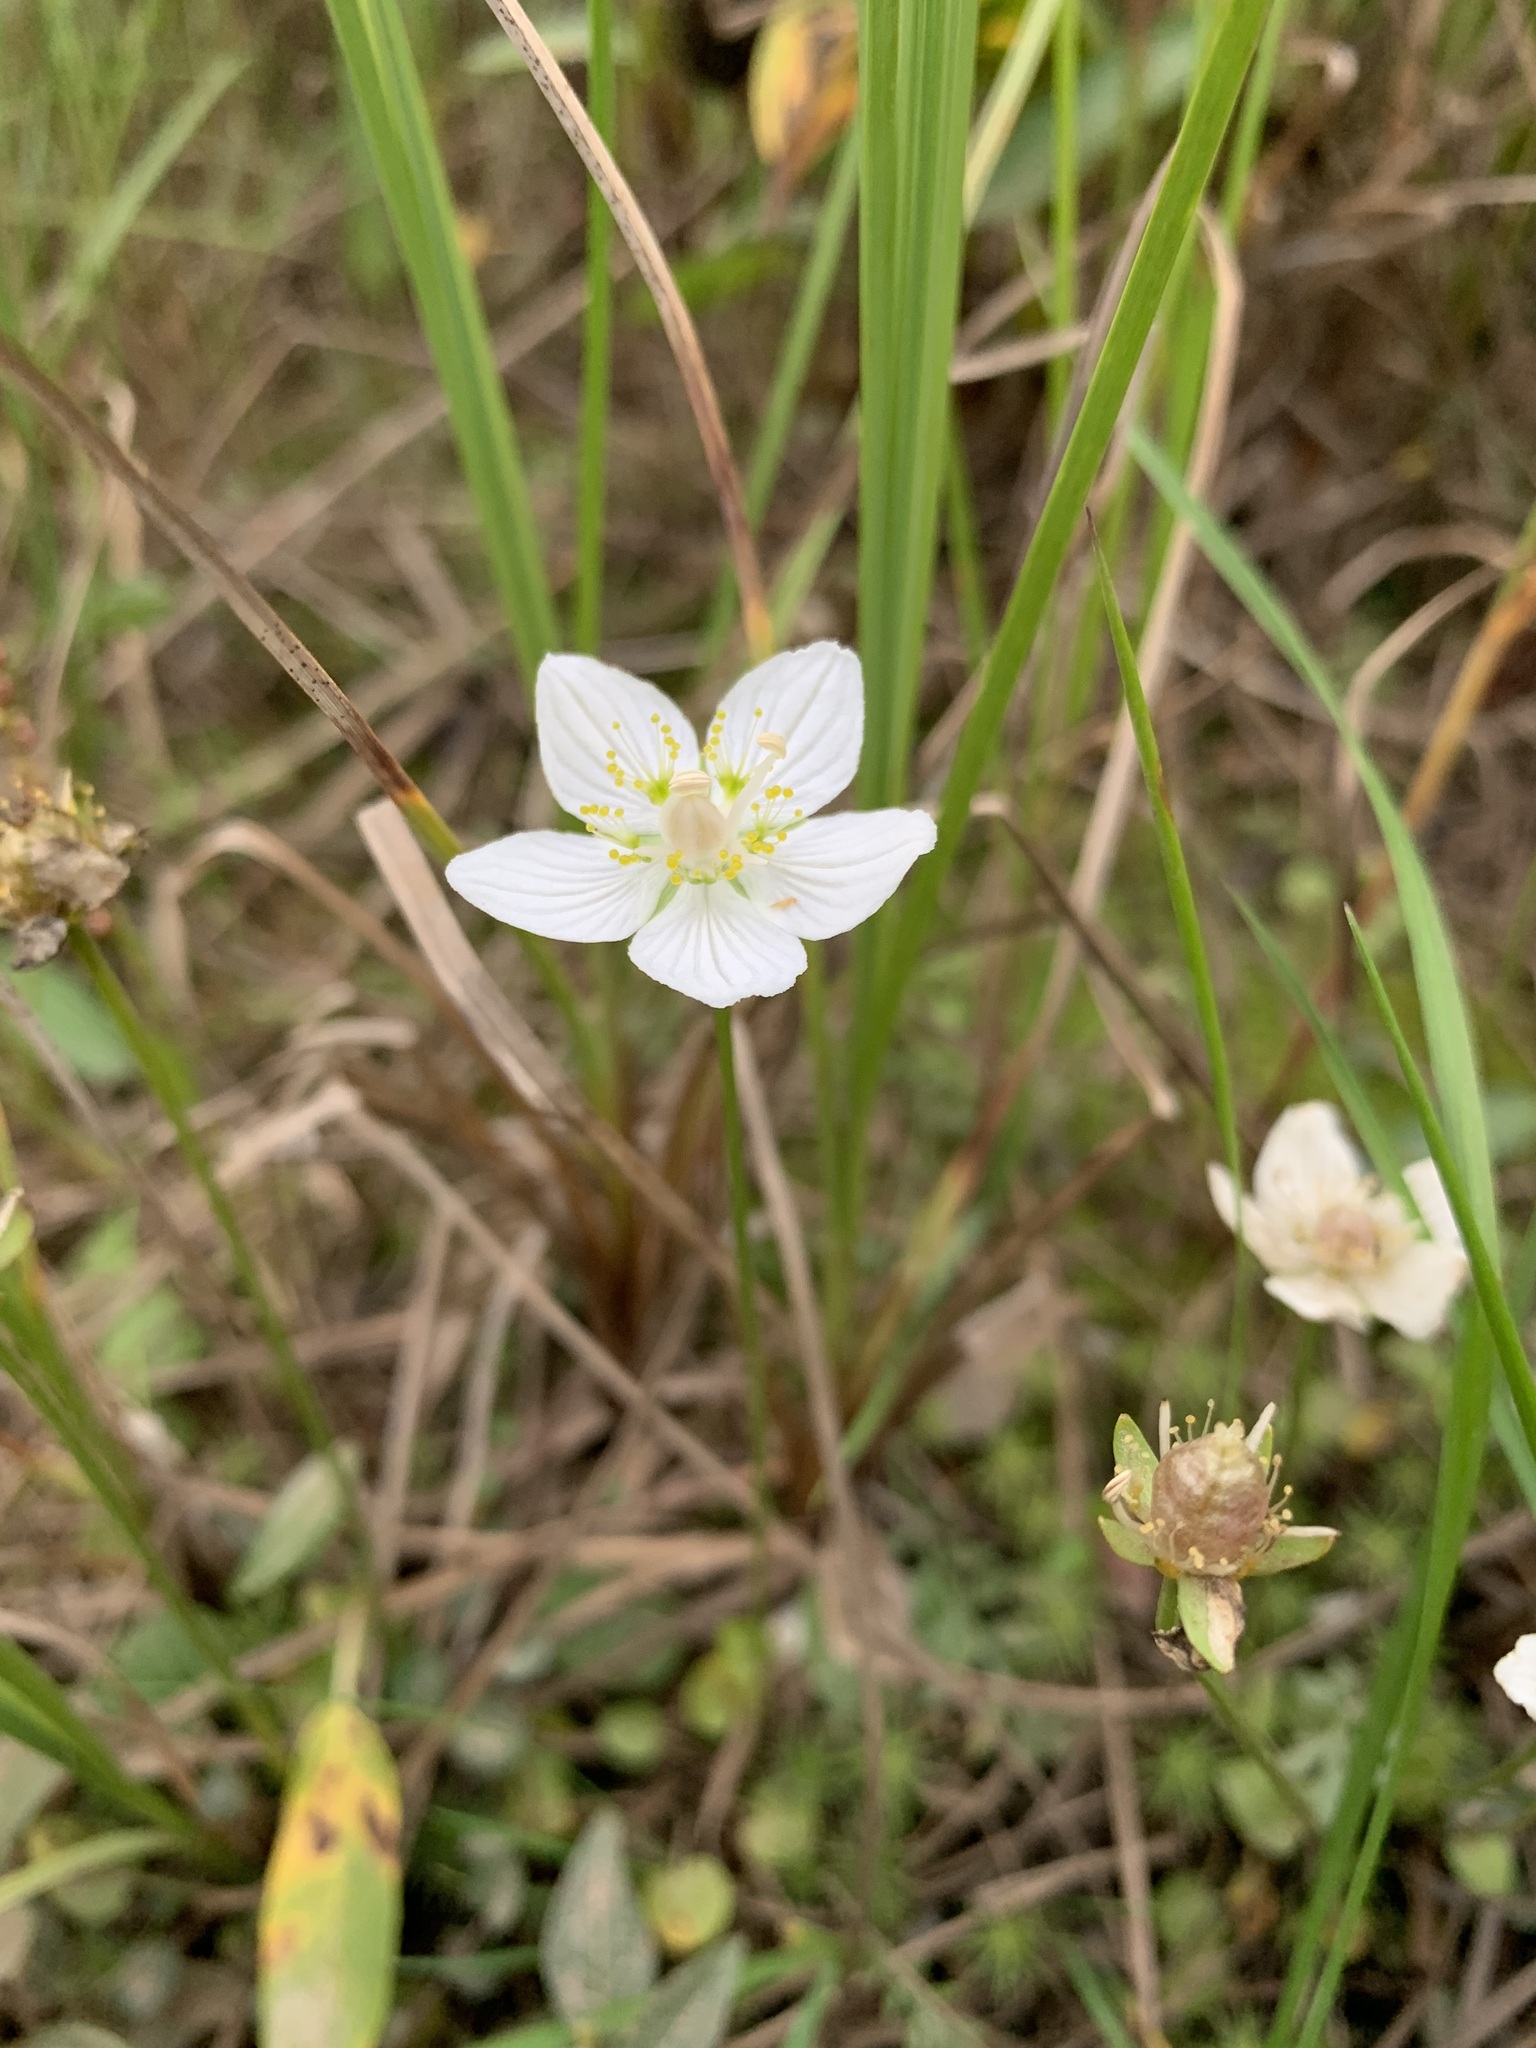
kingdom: Plantae
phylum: Tracheophyta
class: Magnoliopsida
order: Celastrales
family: Parnassiaceae
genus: Parnassia
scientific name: Parnassia palustris
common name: Grass-of-parnassus
